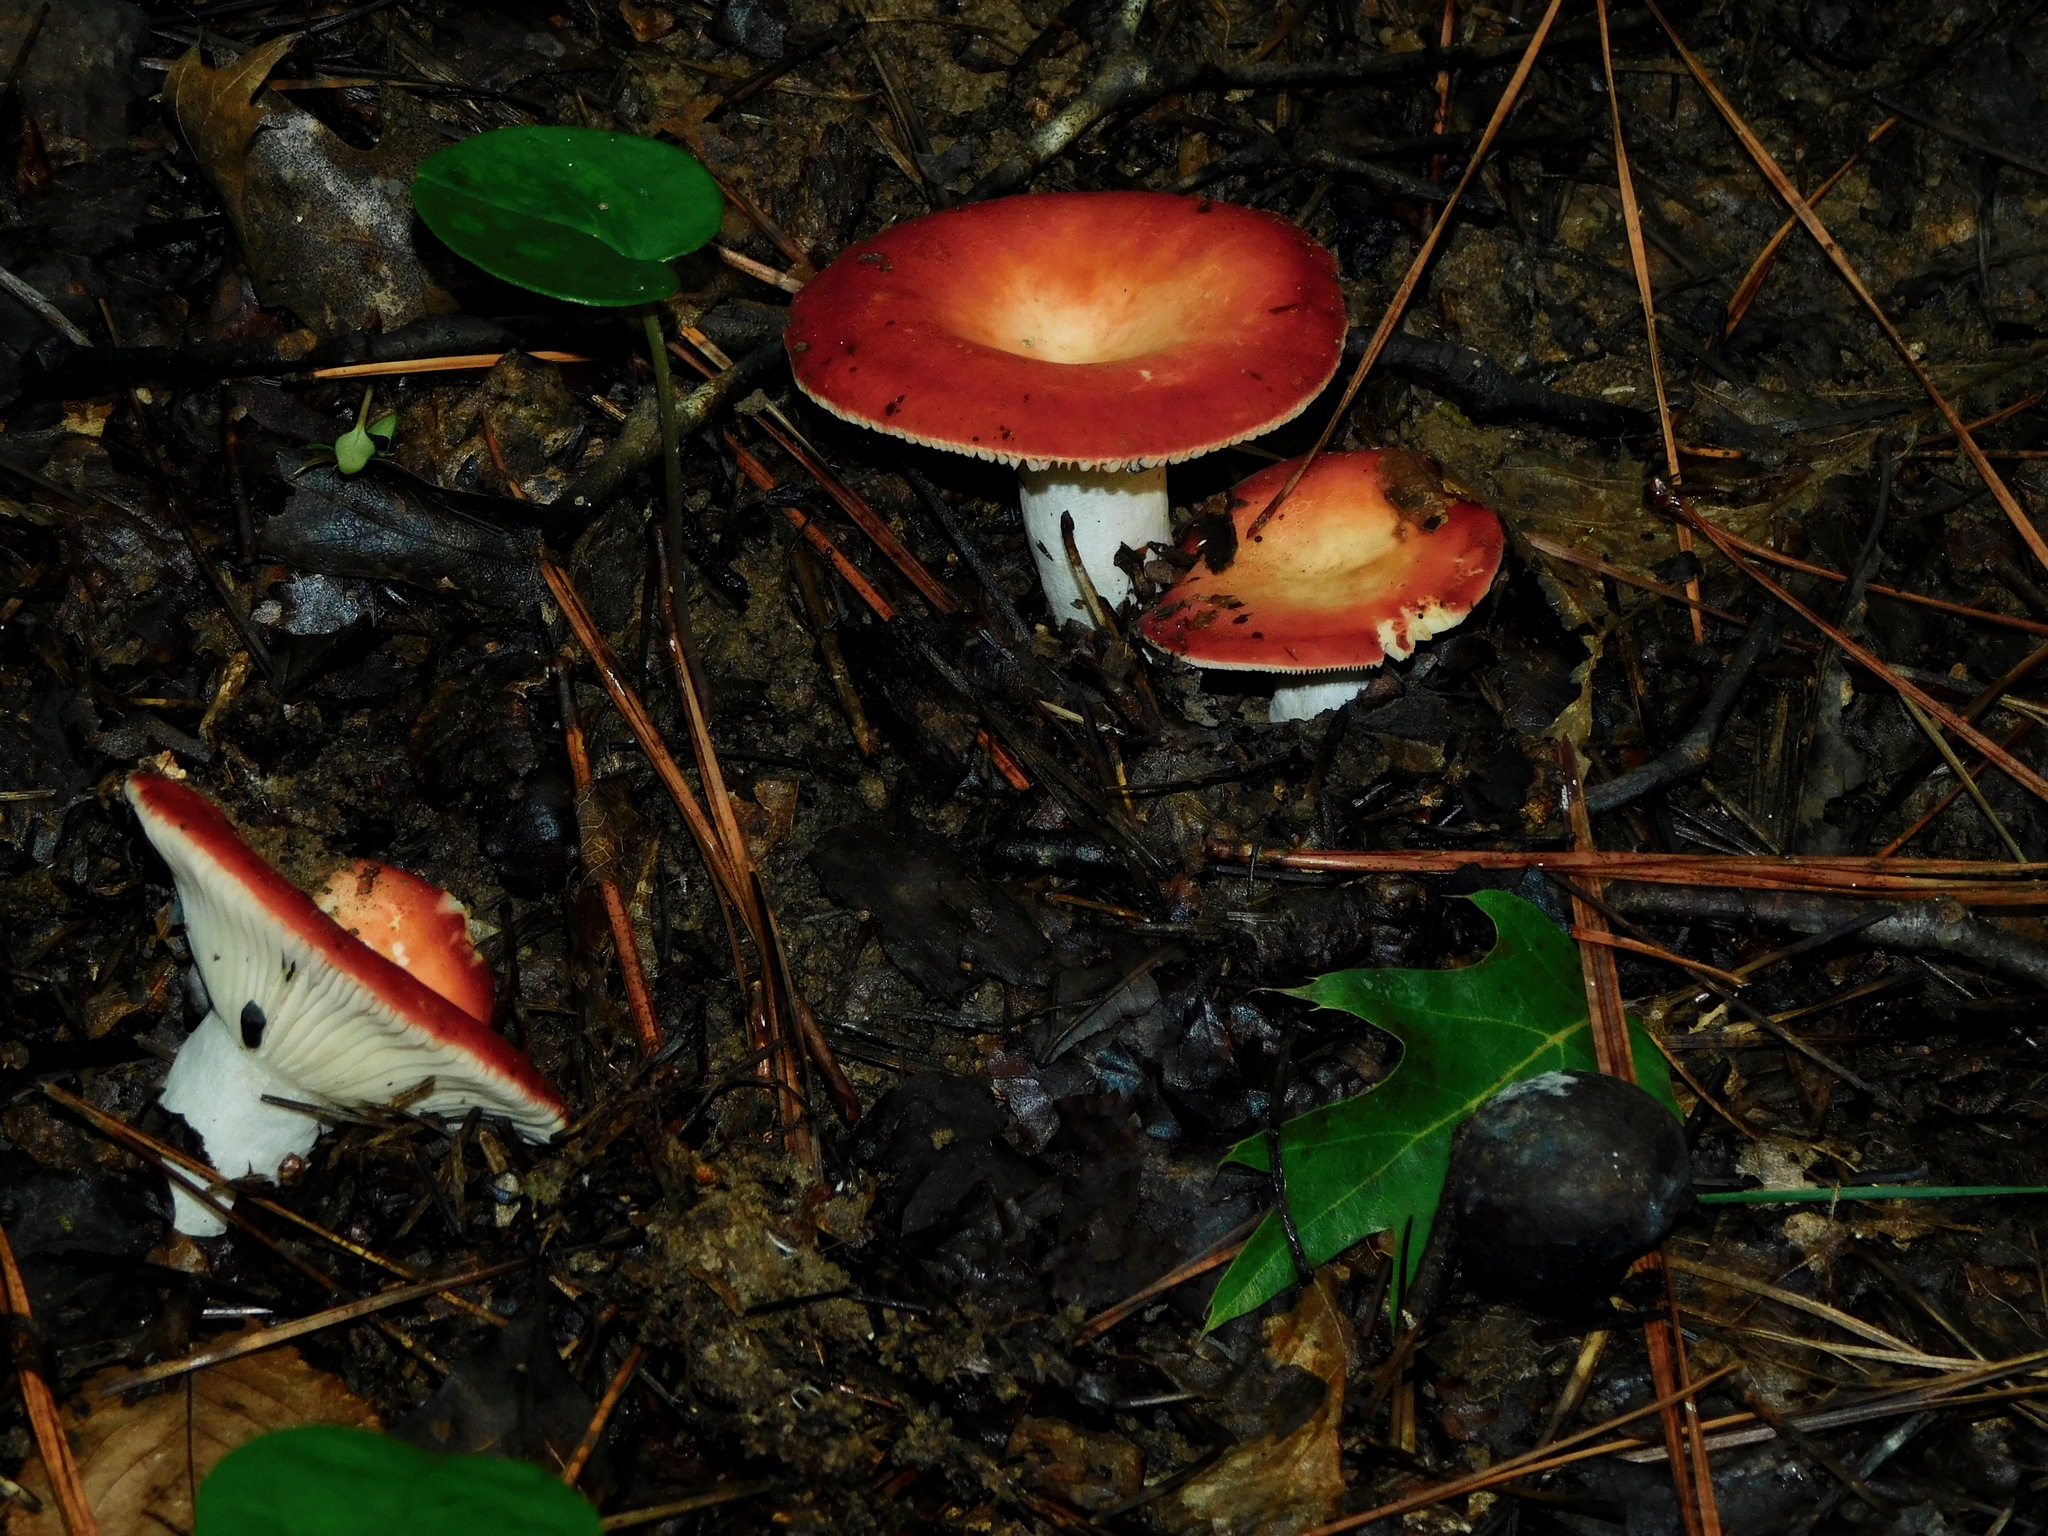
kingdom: Fungi
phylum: Basidiomycota
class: Agaricomycetes
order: Russulales
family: Russulaceae
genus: Russula
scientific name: Russula
